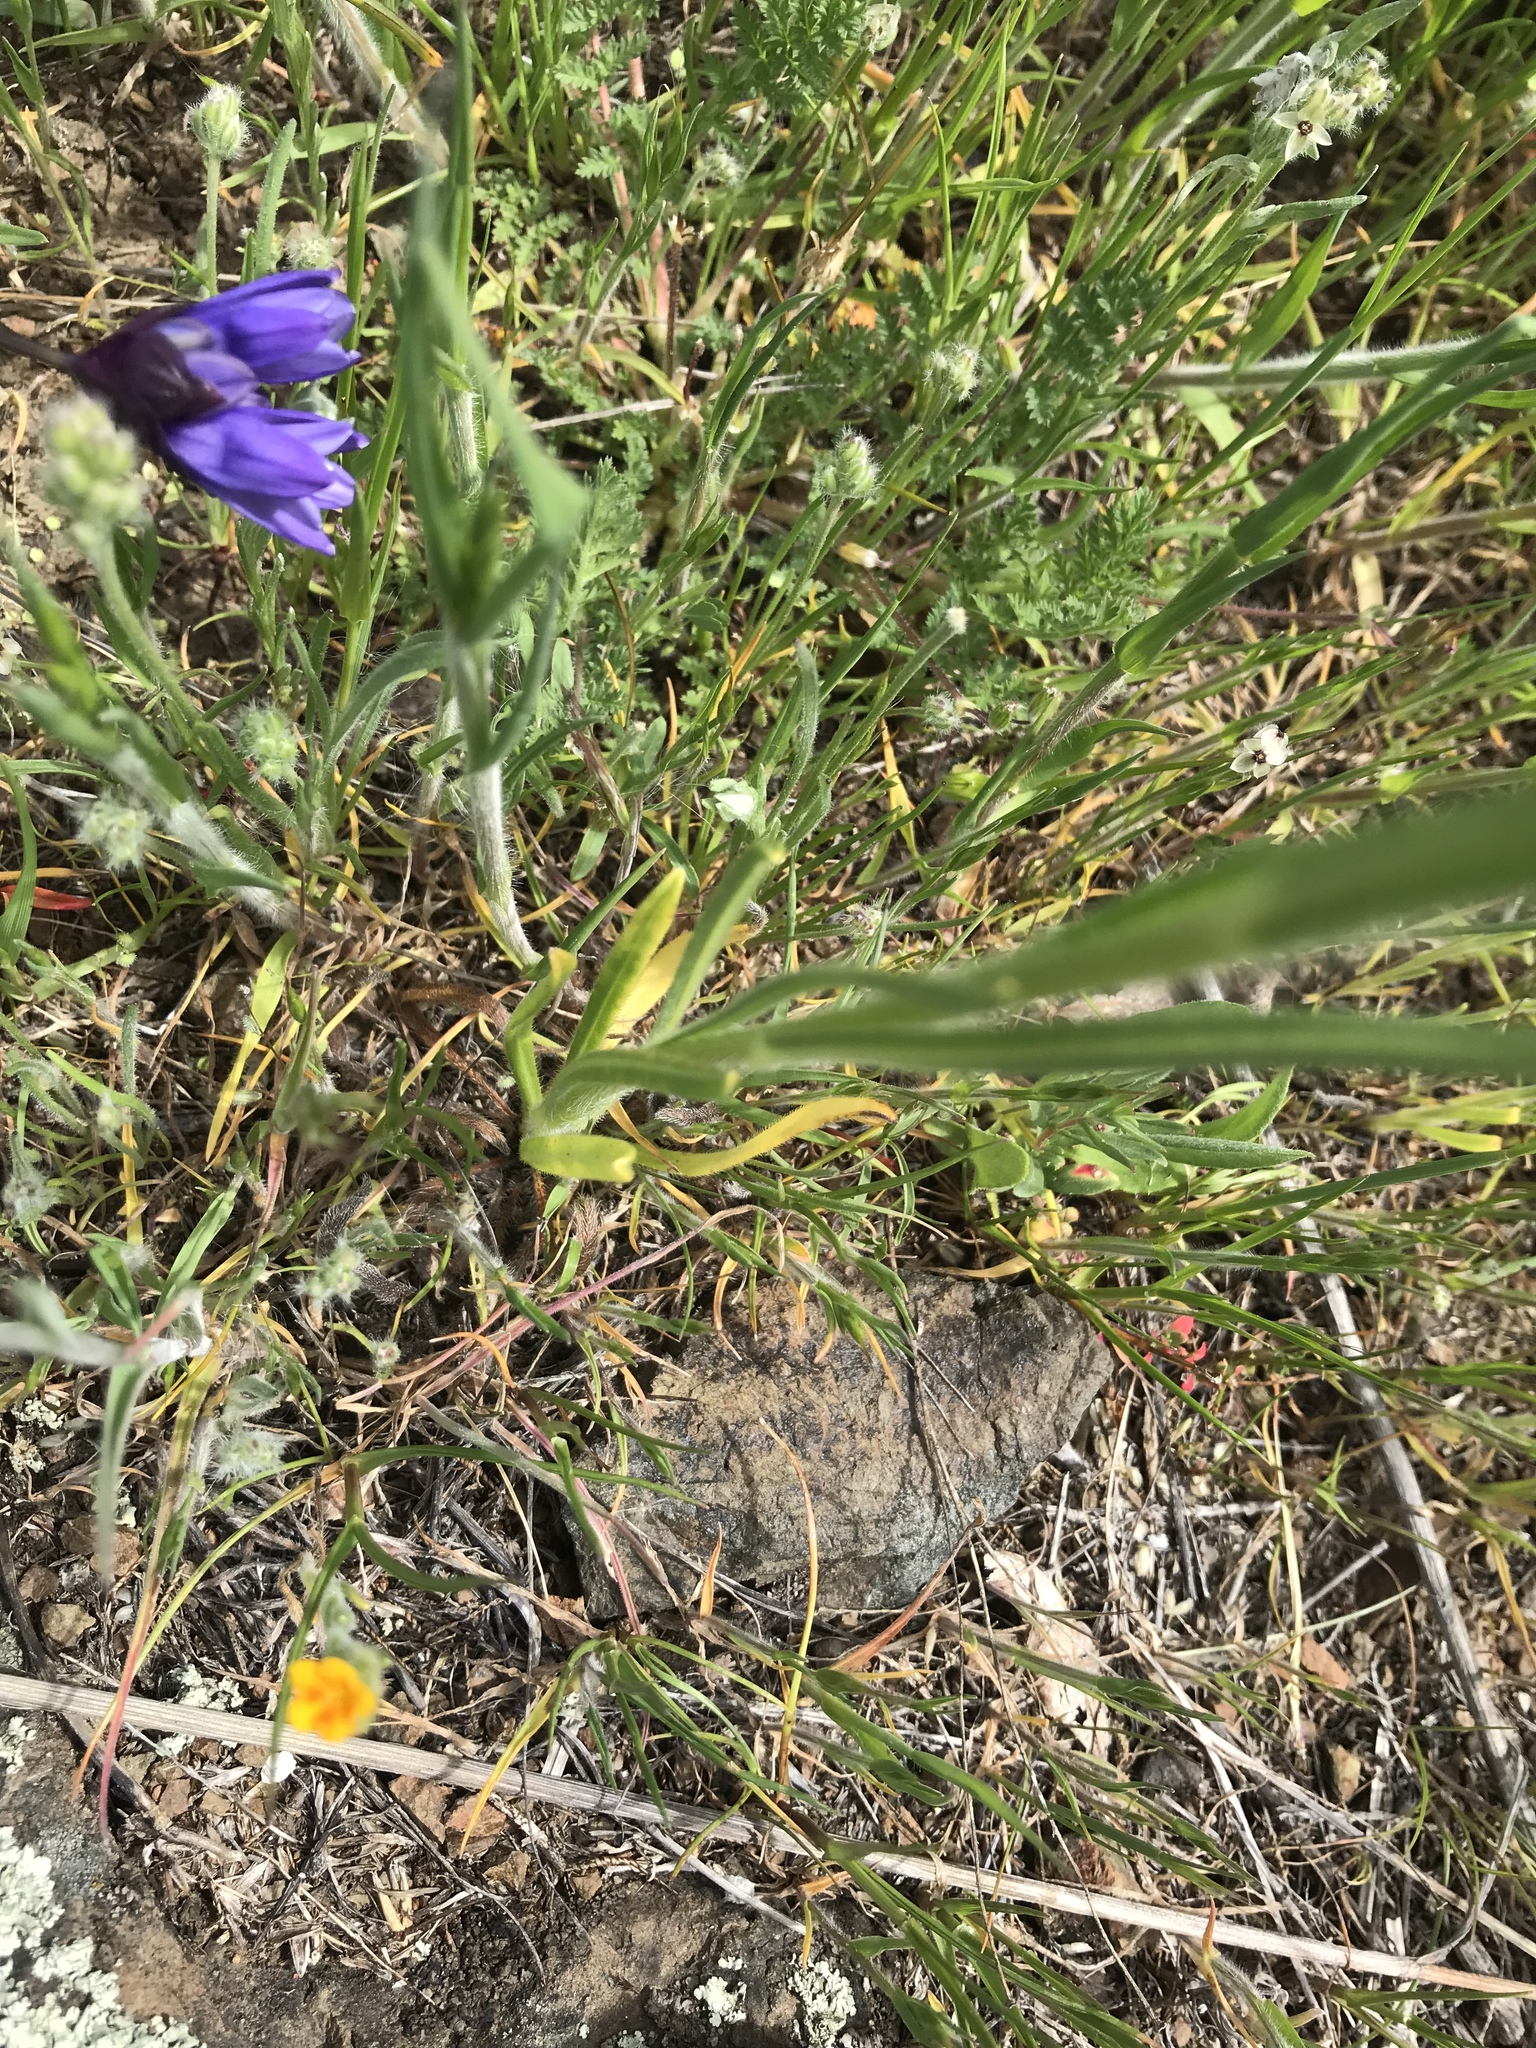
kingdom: Plantae
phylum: Tracheophyta
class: Magnoliopsida
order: Boraginales
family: Boraginaceae
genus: Amsinckia
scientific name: Amsinckia menziesii
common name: Menzies' fiddleneck
